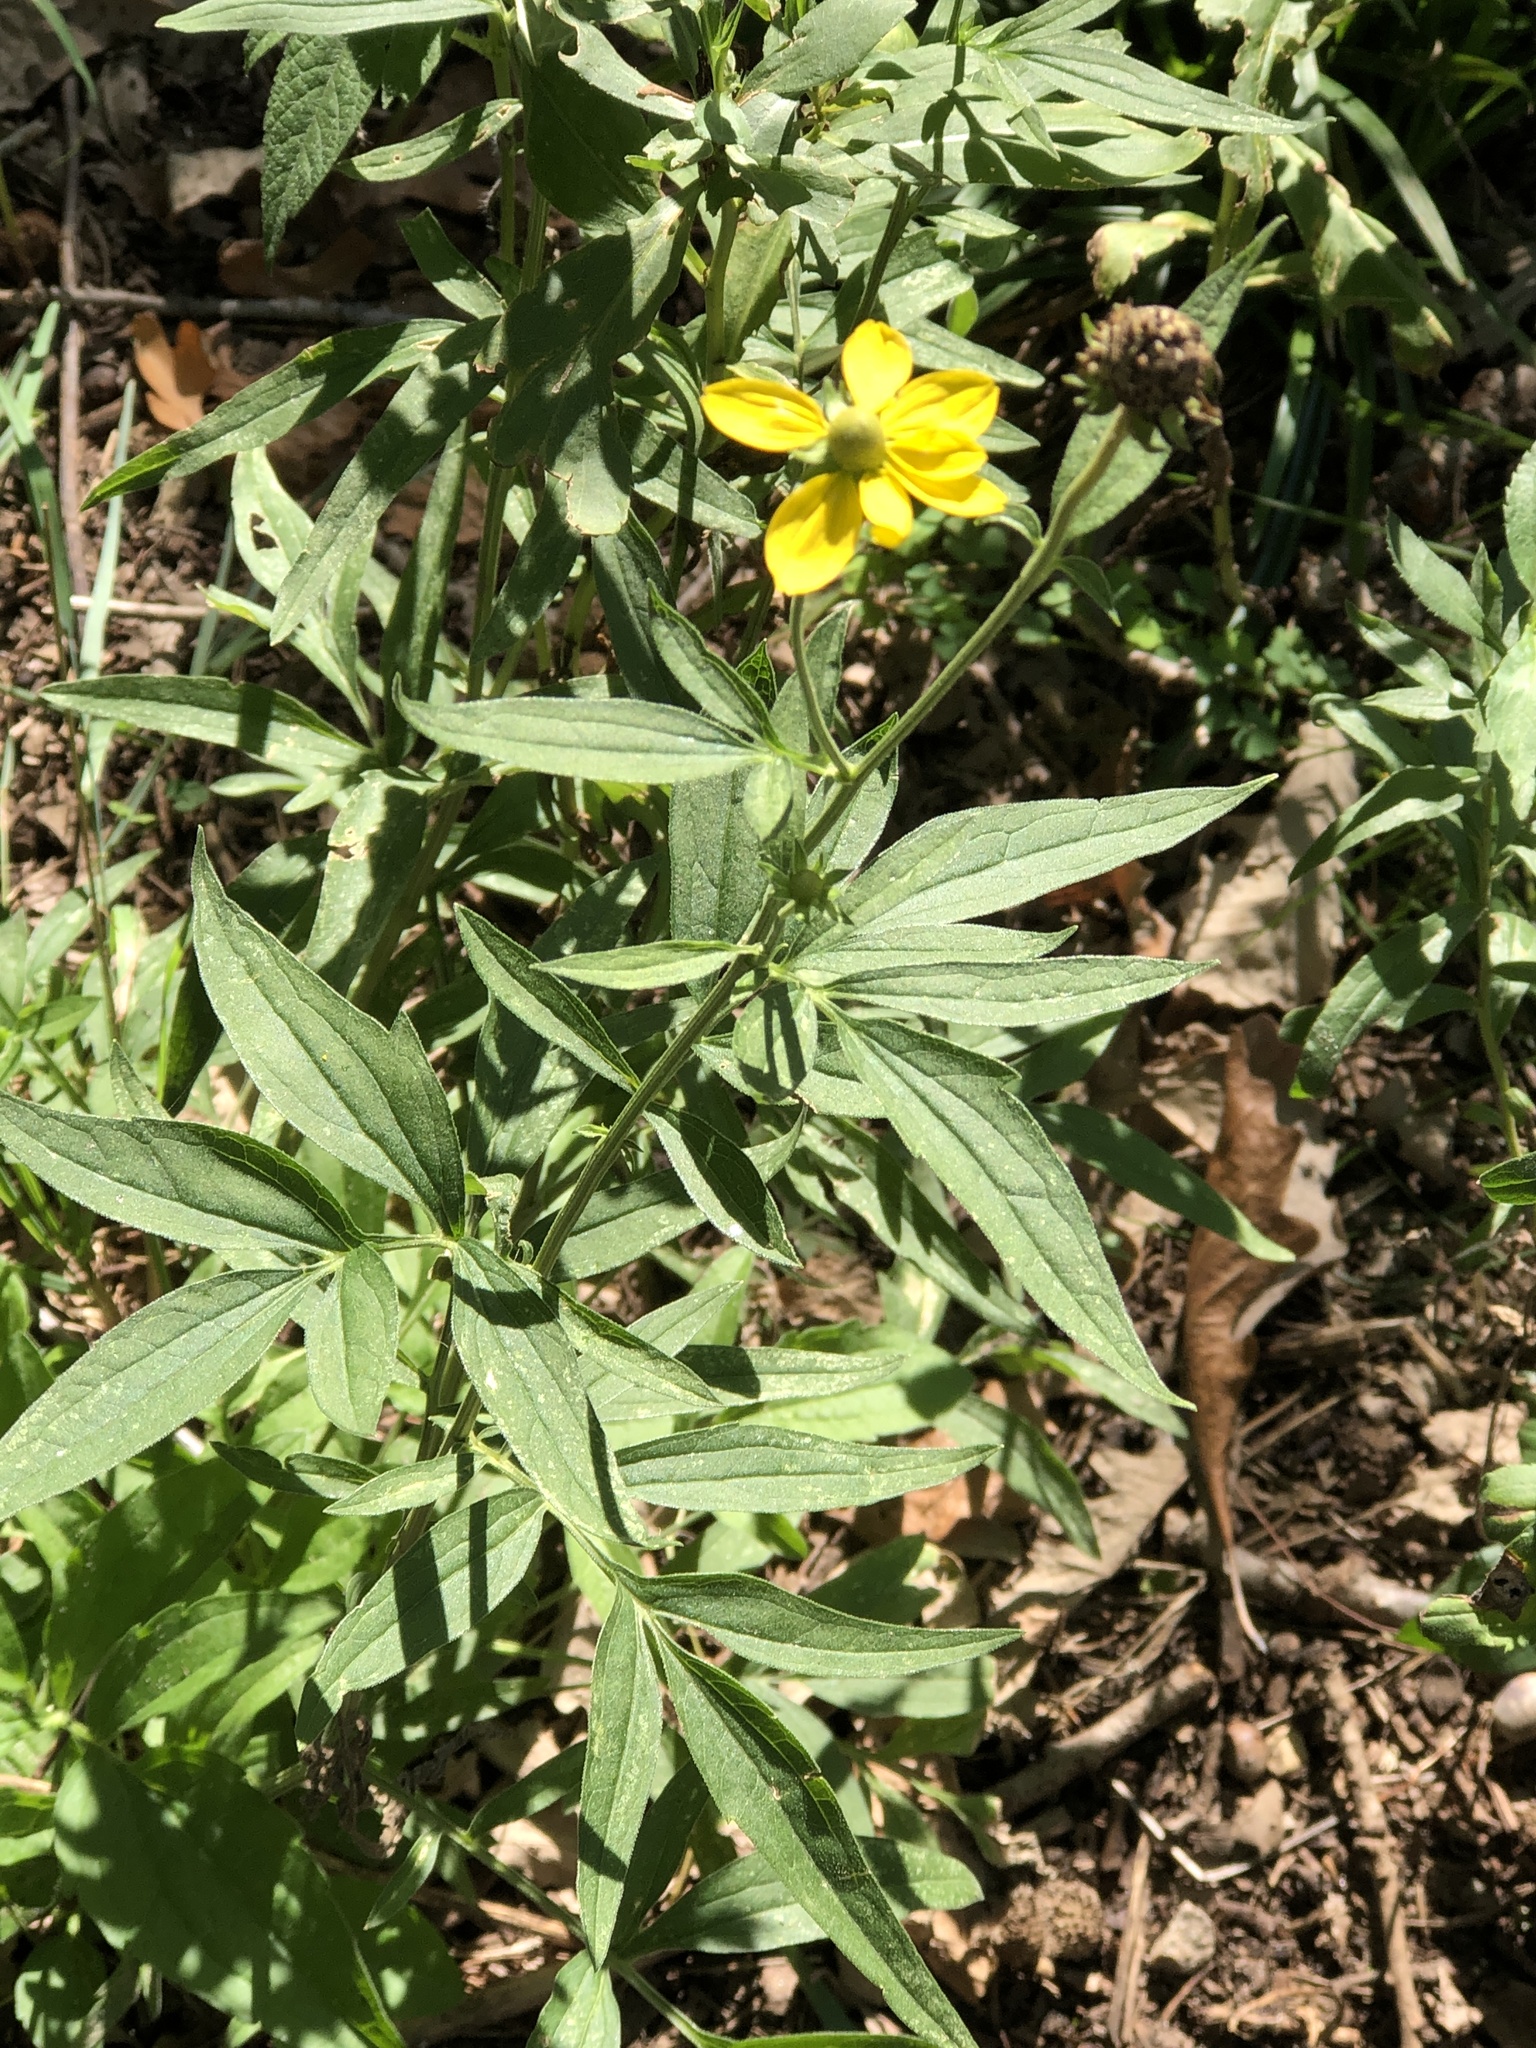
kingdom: Plantae
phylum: Tracheophyta
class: Magnoliopsida
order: Asterales
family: Asteraceae
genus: Ratibida
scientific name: Ratibida pinnata
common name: Drooping prairie-coneflower
